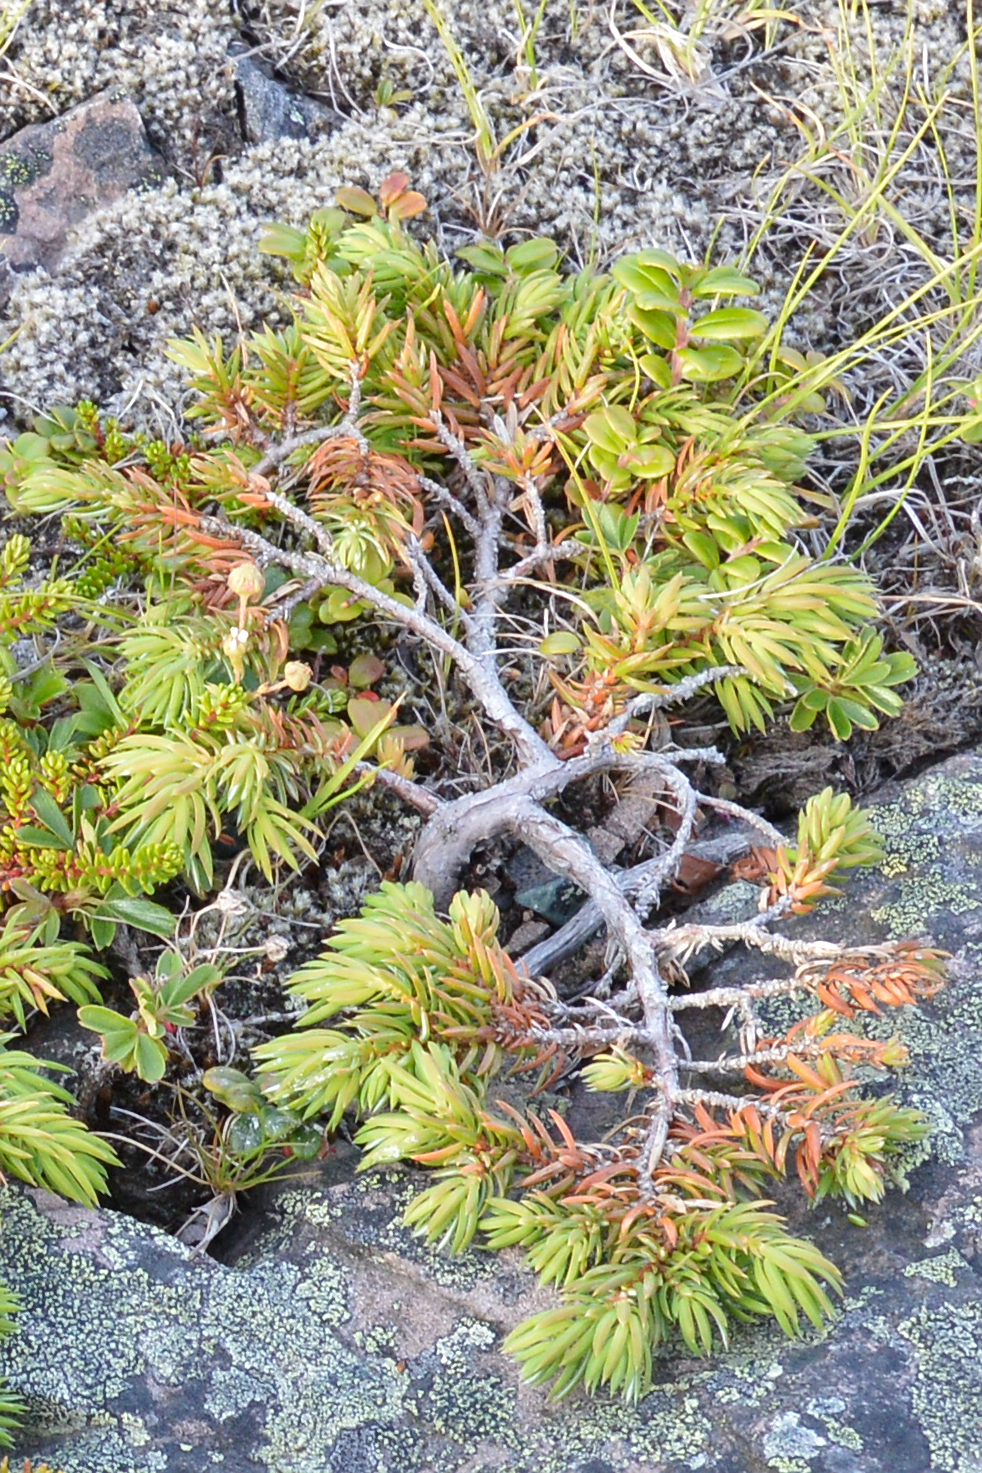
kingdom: Plantae
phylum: Tracheophyta
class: Pinopsida
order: Pinales
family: Cupressaceae
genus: Juniperus
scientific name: Juniperus communis
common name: Common juniper
